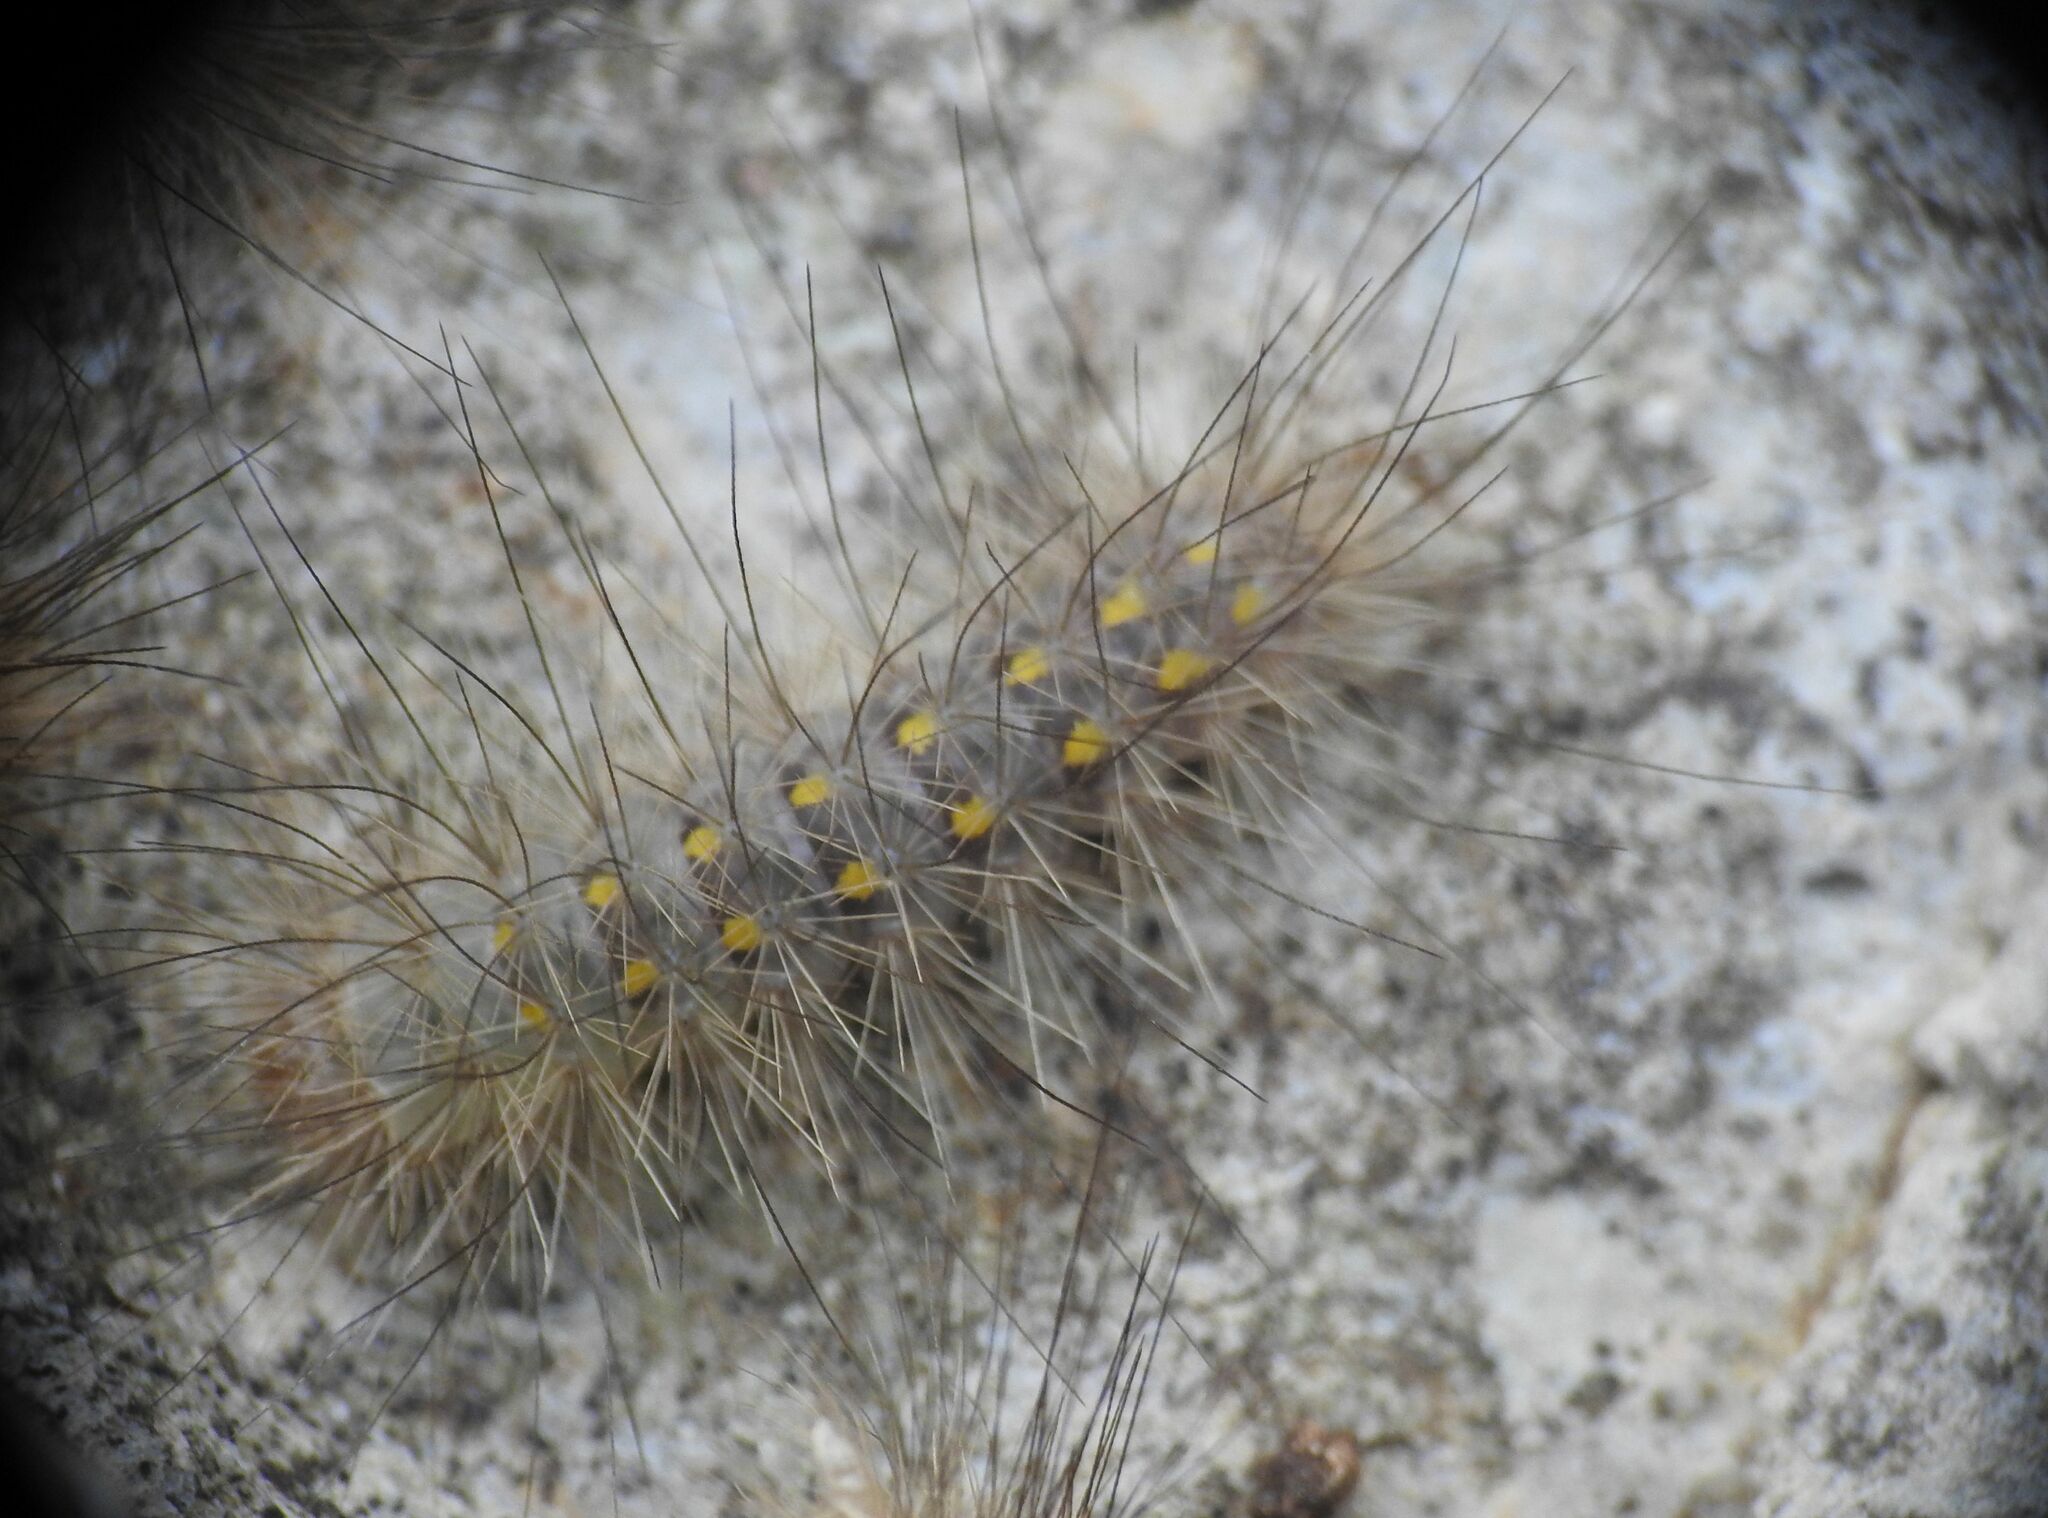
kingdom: Animalia
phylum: Arthropoda
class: Insecta
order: Lepidoptera
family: Erebidae
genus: Paidia
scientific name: Paidia rica
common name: Glaucous muslin
